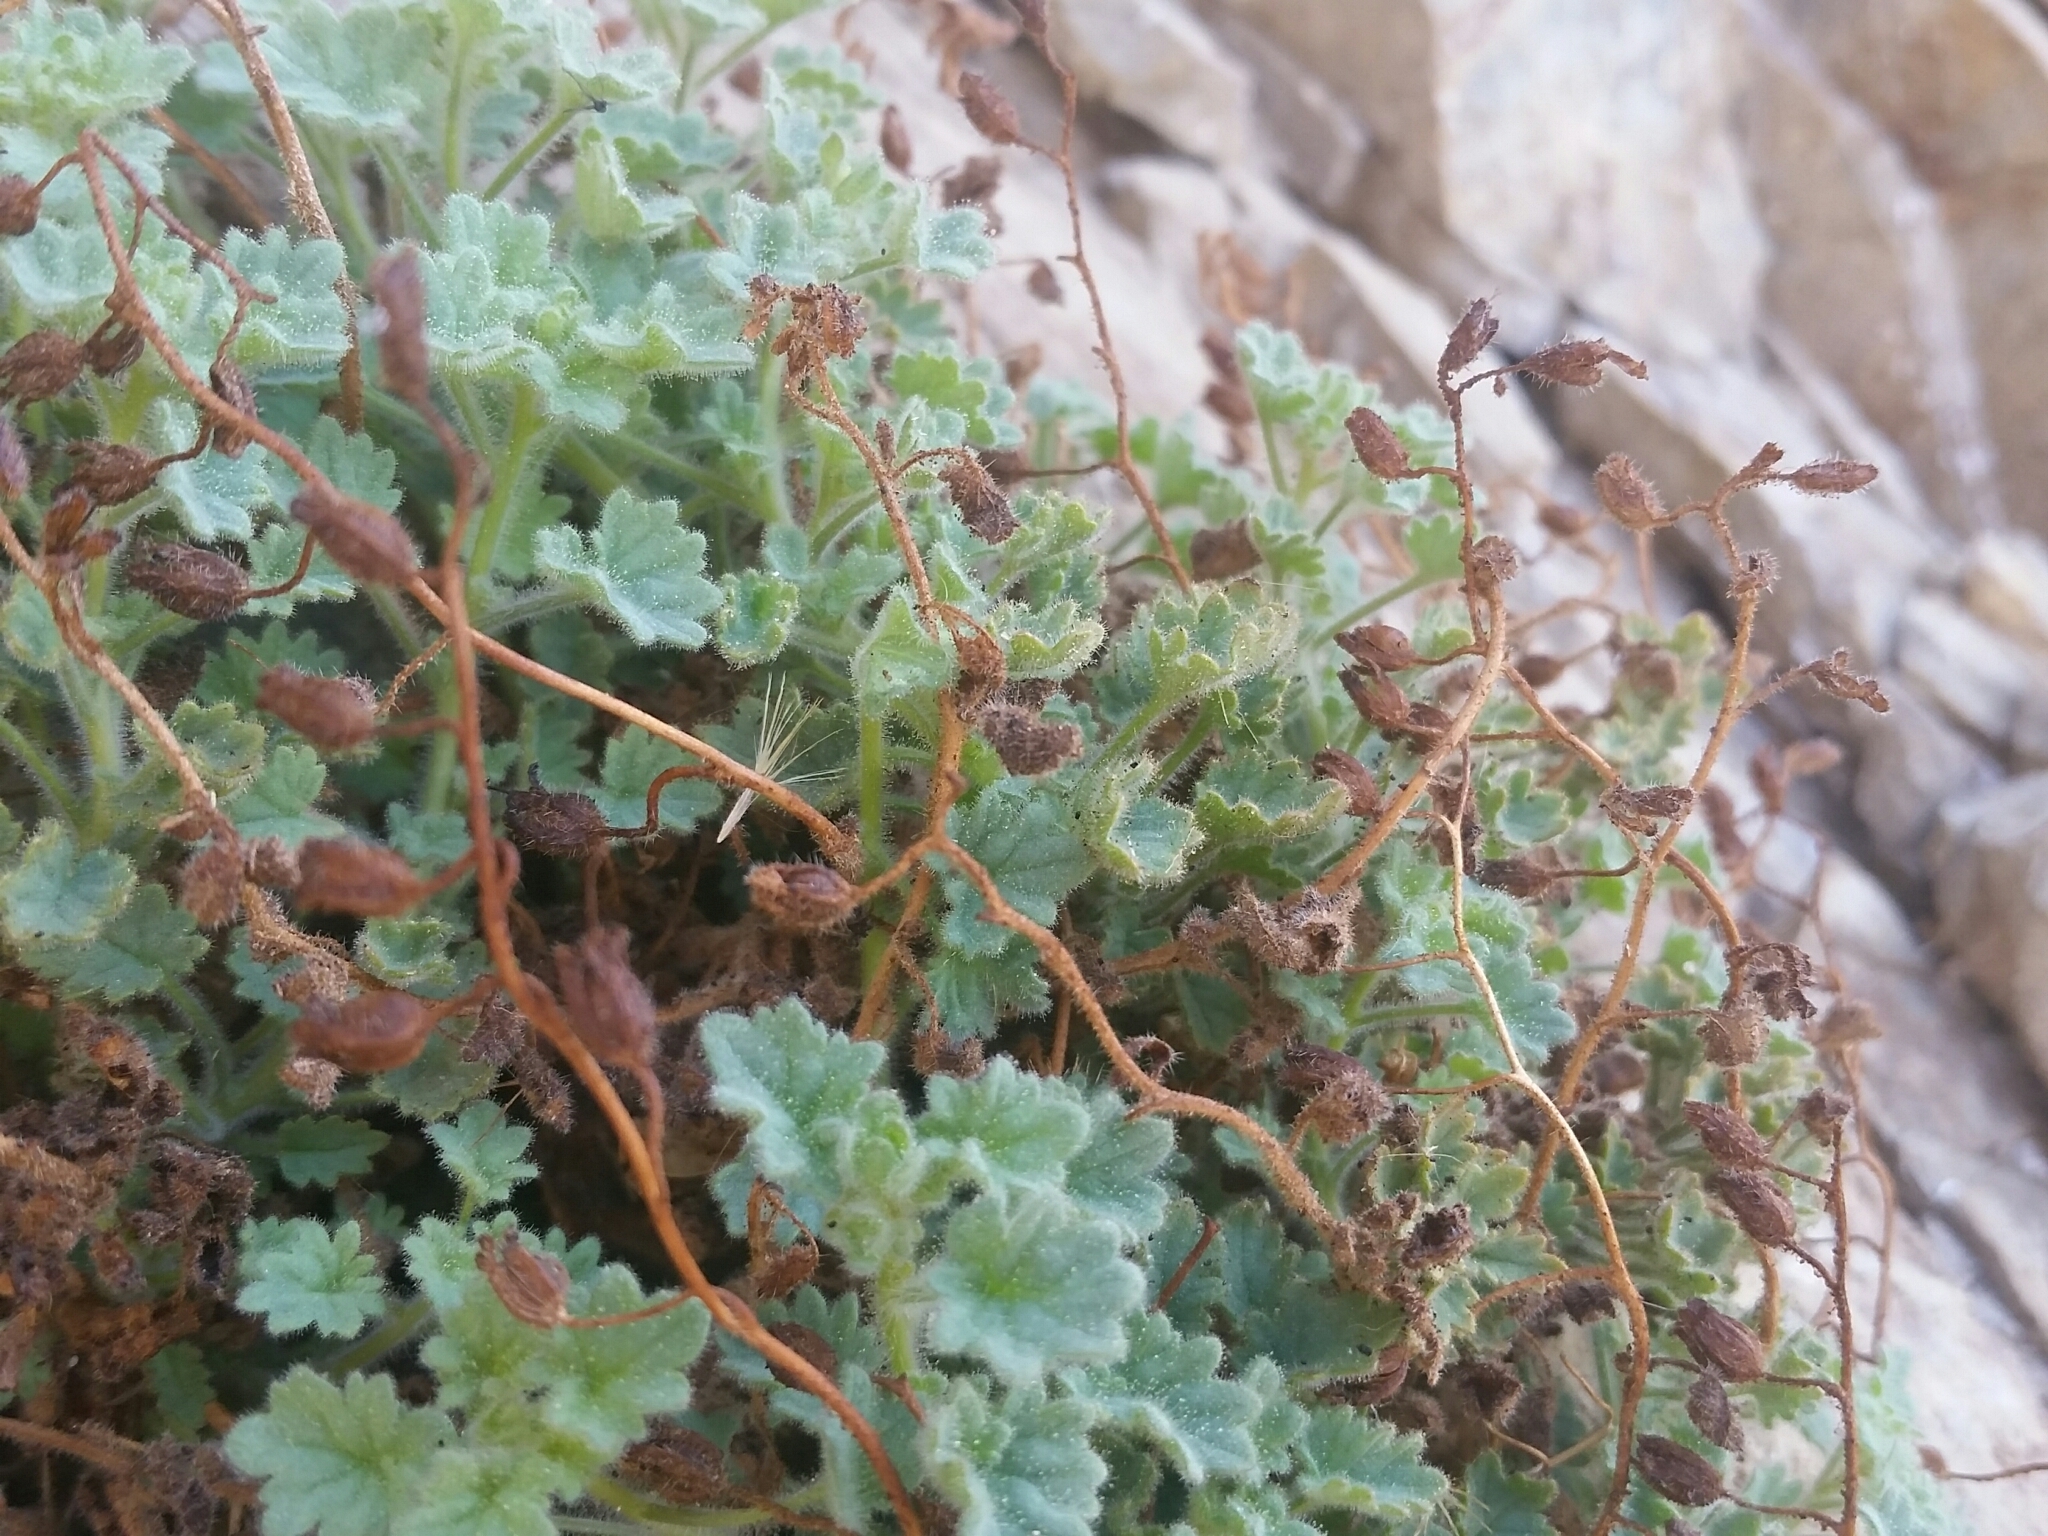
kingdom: Plantae
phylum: Tracheophyta
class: Magnoliopsida
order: Boraginales
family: Hydrophyllaceae
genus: Phacelia
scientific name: Phacelia perityloides
